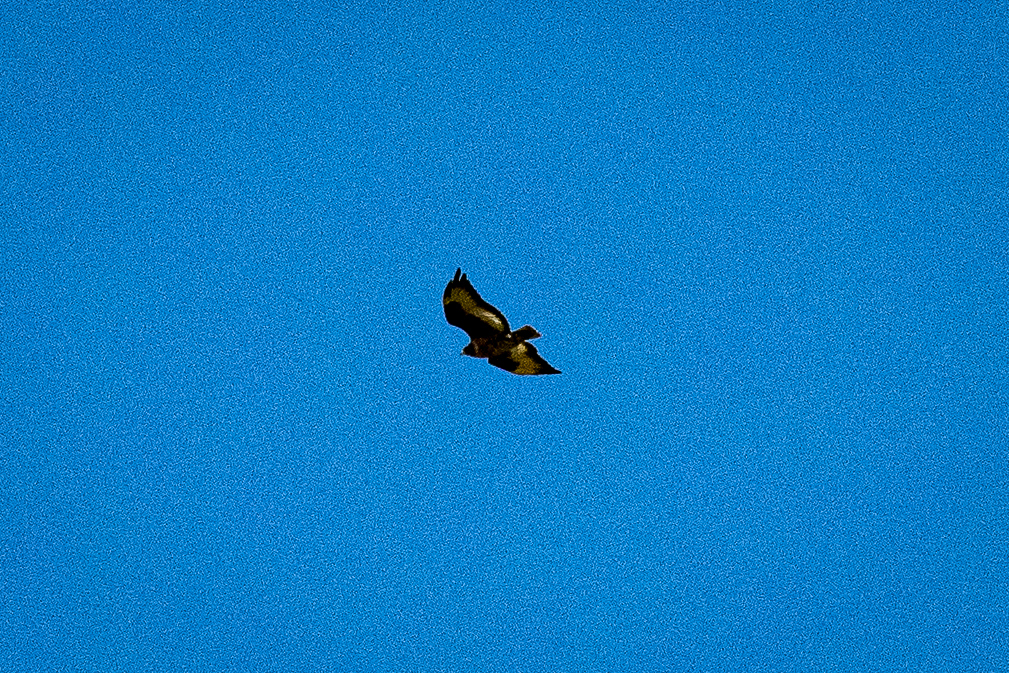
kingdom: Animalia
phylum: Chordata
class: Aves
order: Accipitriformes
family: Accipitridae
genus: Buteo
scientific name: Buteo rufofuscus
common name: Jackal buzzard
